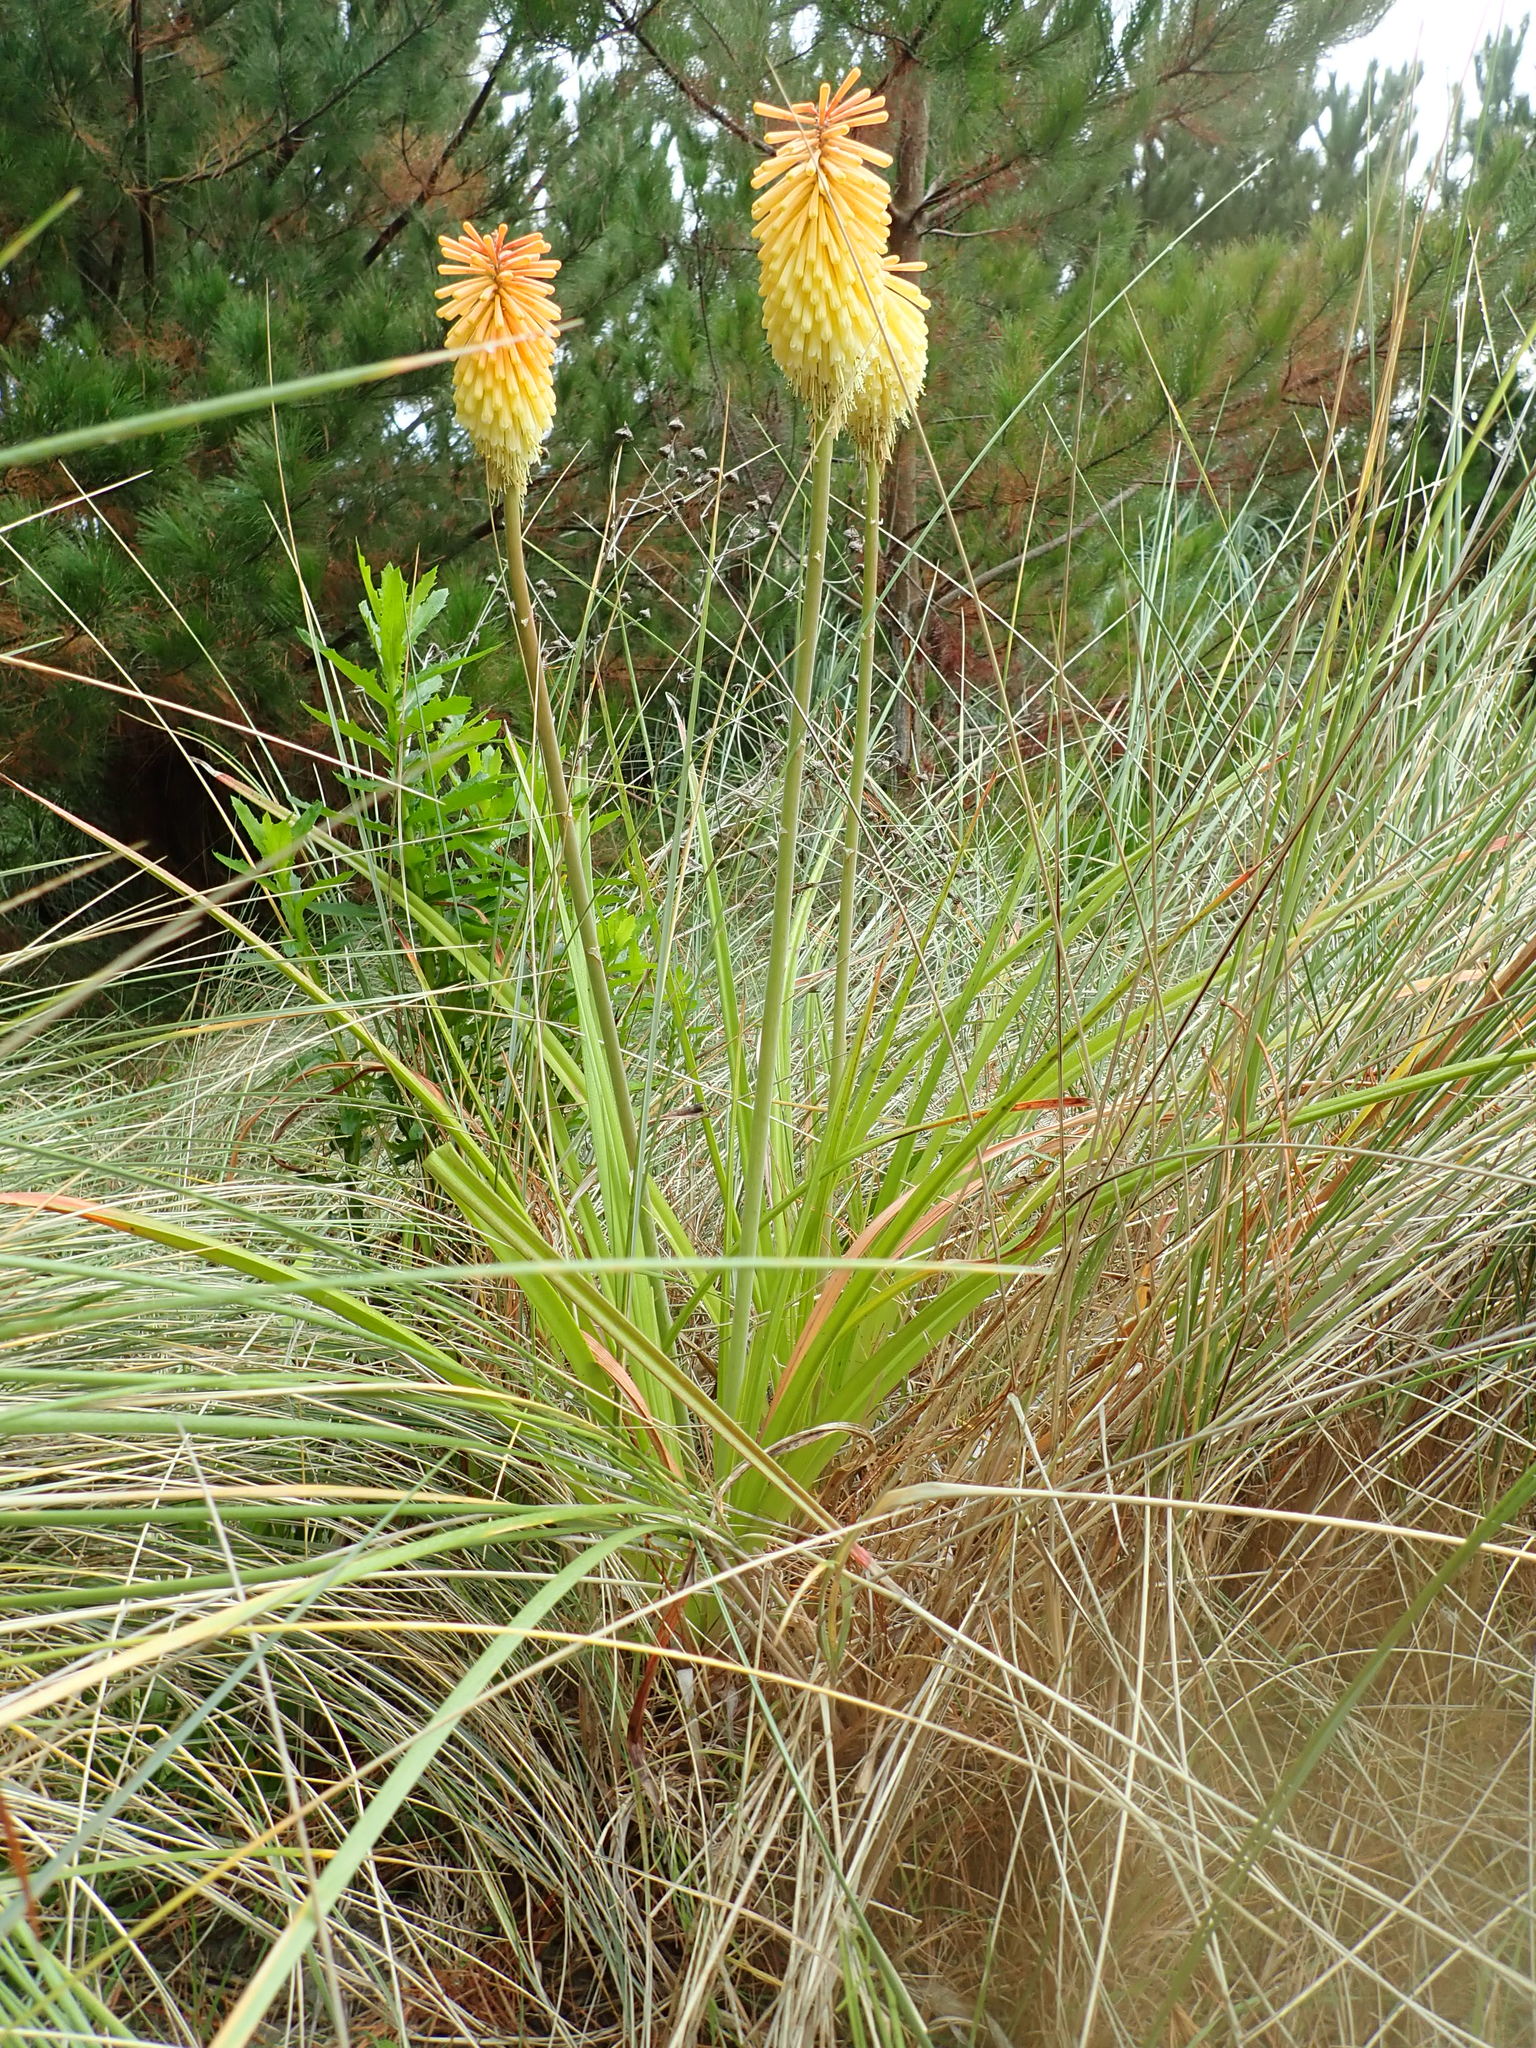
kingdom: Plantae
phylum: Tracheophyta
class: Liliopsida
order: Asparagales
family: Asphodelaceae
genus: Kniphofia
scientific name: Kniphofia
